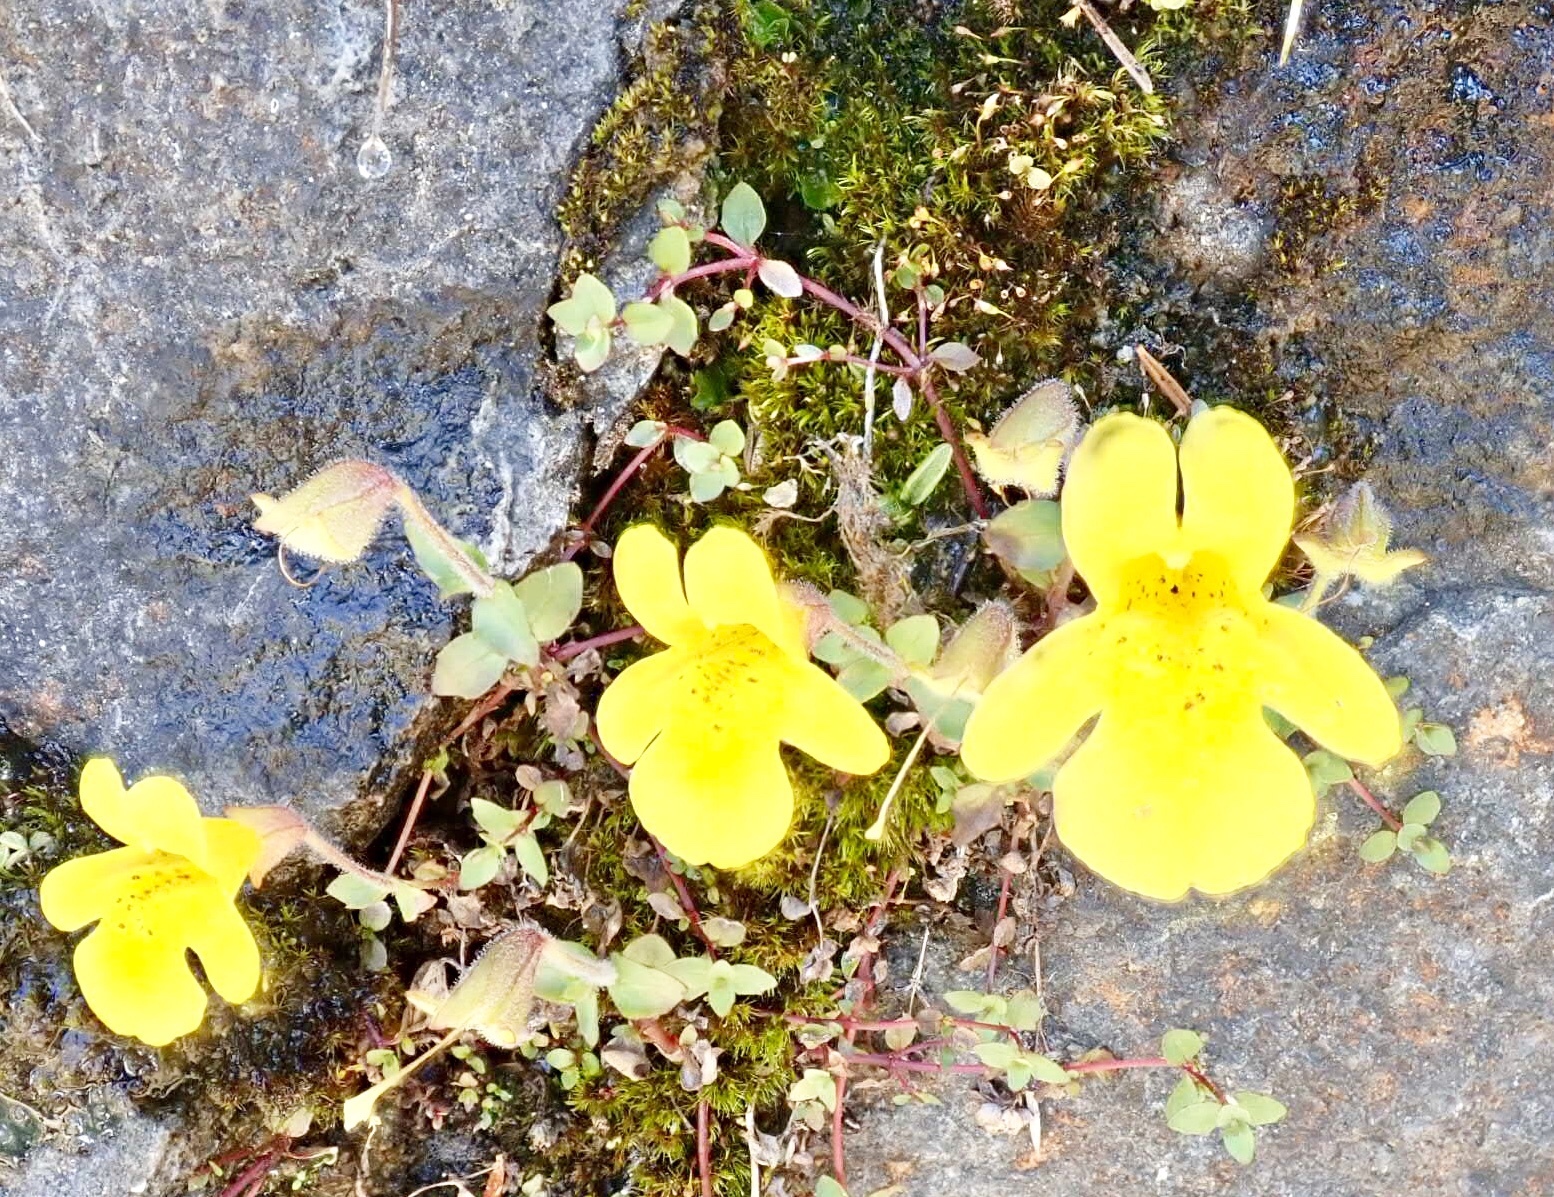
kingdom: Plantae
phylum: Tracheophyta
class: Magnoliopsida
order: Lamiales
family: Phrymaceae
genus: Erythranthe
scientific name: Erythranthe caespitosa
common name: Subalpine monkeyflower
